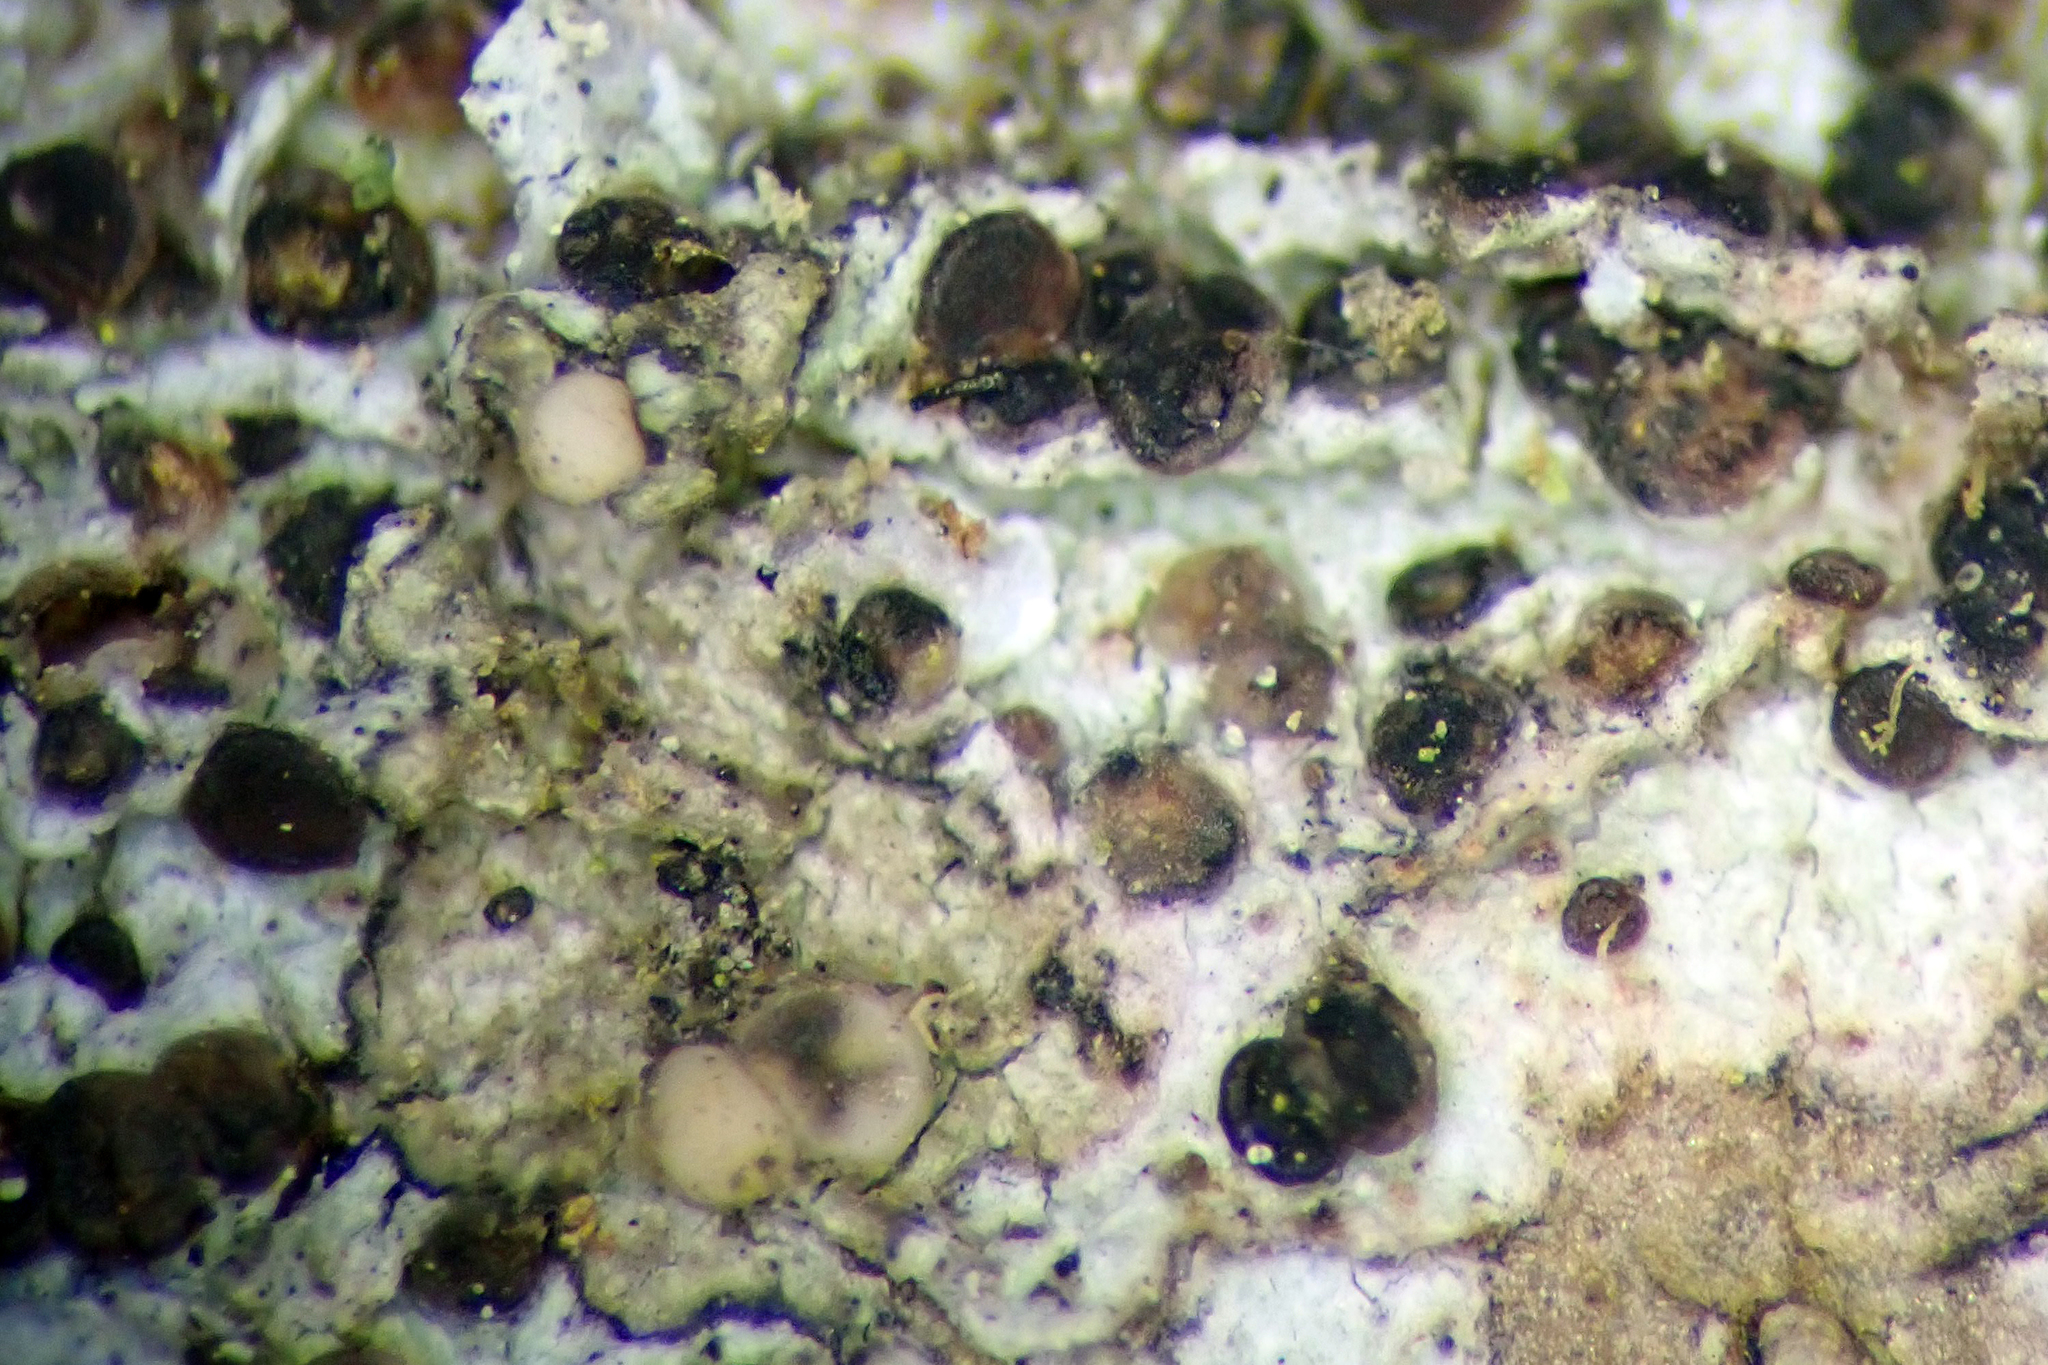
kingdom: Fungi
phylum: Ascomycota
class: Lecanoromycetes
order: Lecanorales
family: Ramalinaceae
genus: Bacidia
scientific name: Bacidia
